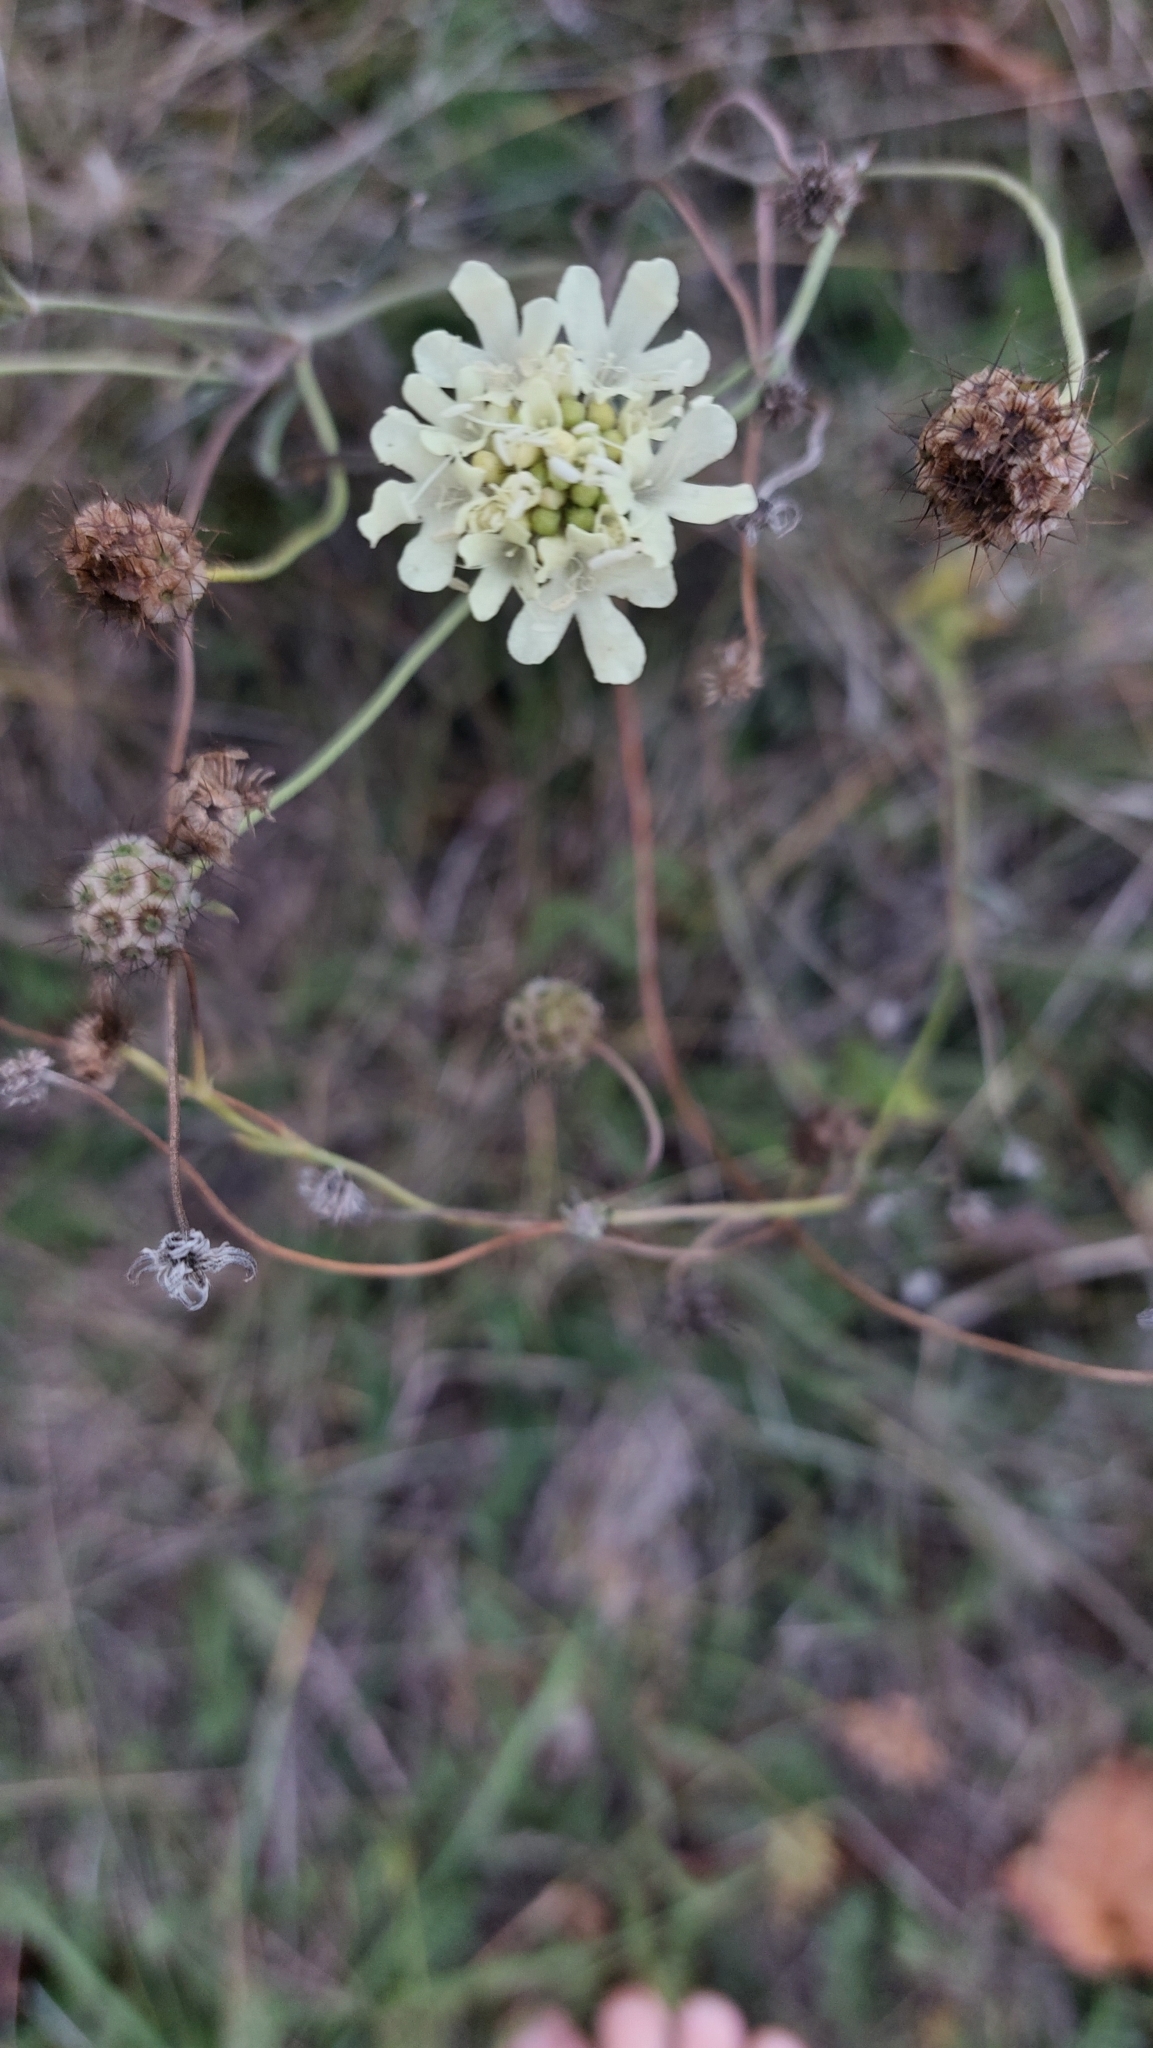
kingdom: Plantae
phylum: Tracheophyta
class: Magnoliopsida
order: Dipsacales
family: Caprifoliaceae
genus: Scabiosa
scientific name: Scabiosa ochroleuca
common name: Cream pincushions
